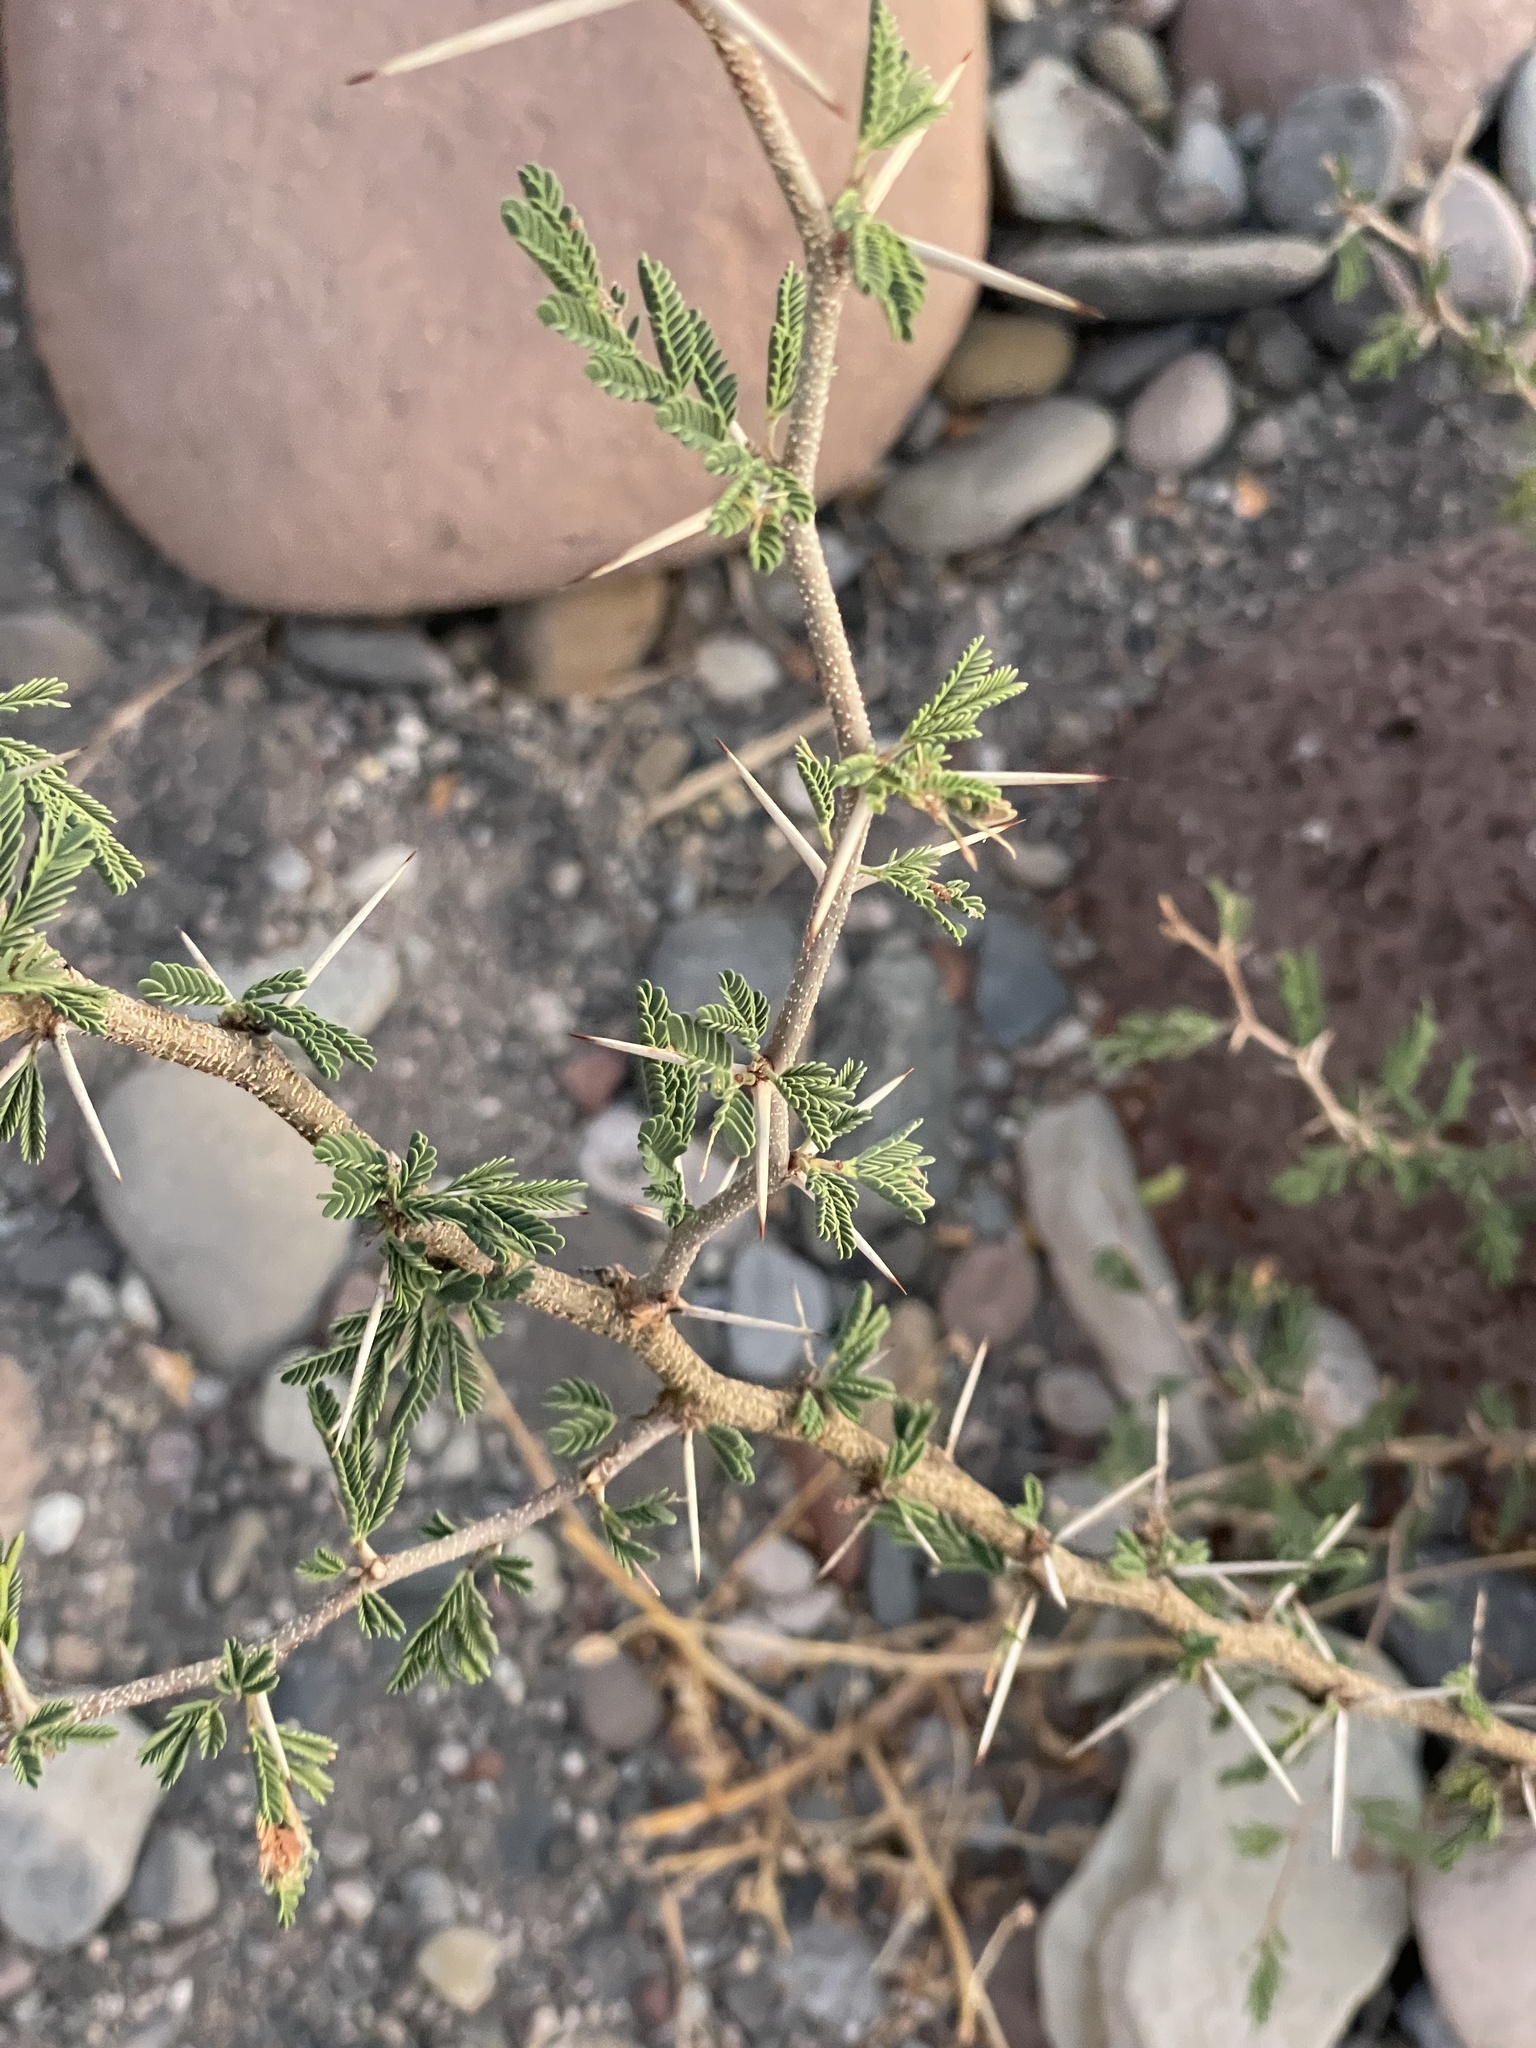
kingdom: Plantae
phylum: Tracheophyta
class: Magnoliopsida
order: Fabales
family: Fabaceae
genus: Vachellia
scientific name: Vachellia farnesiana
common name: Sweet acacia
